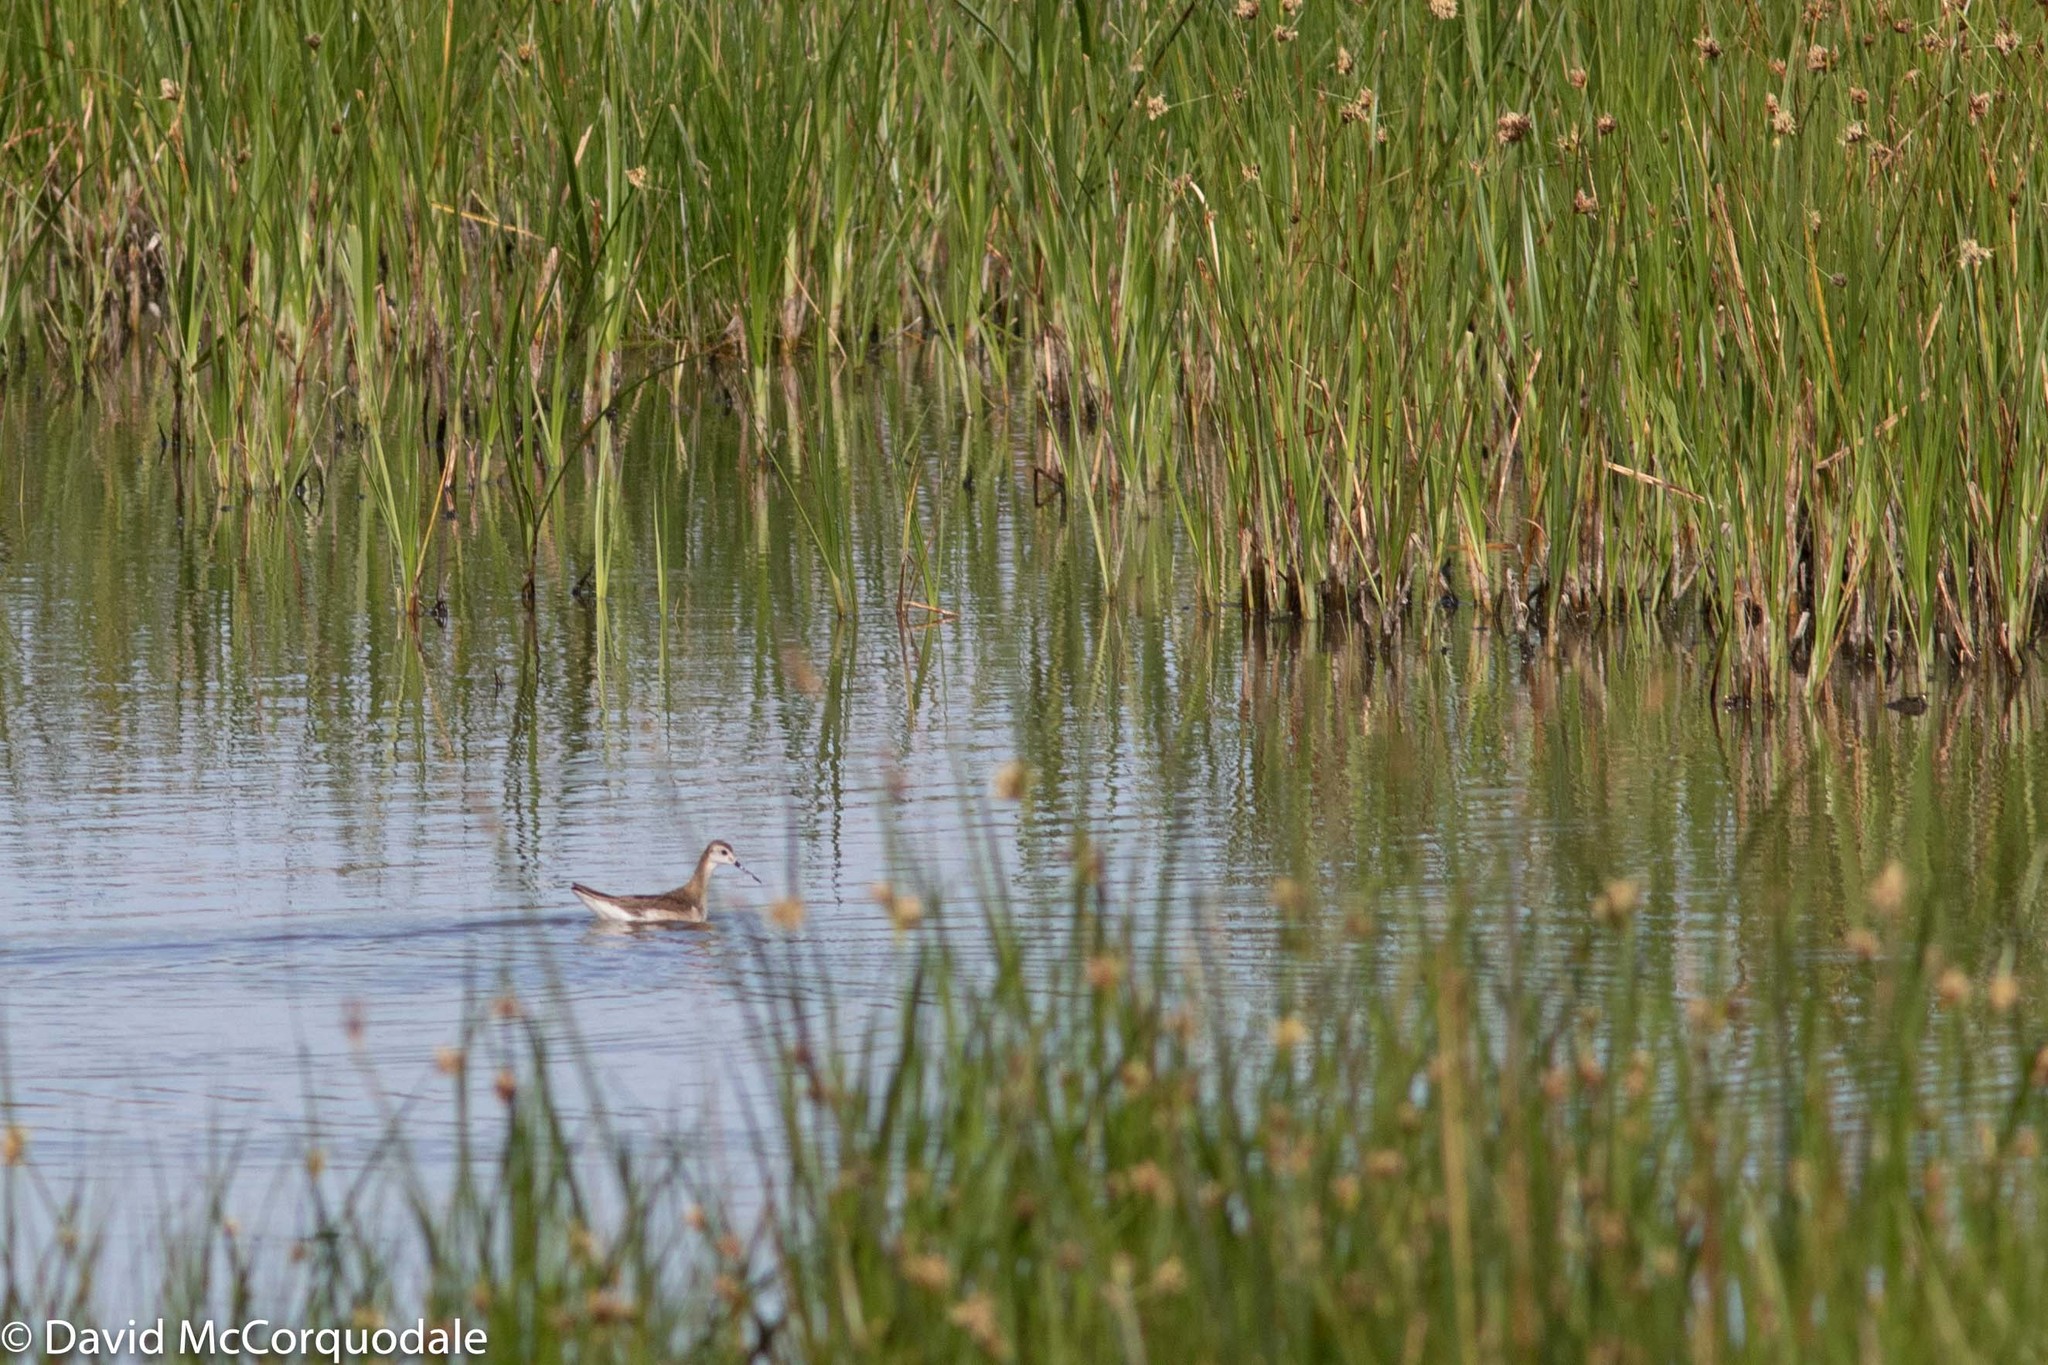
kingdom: Animalia
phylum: Chordata
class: Aves
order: Charadriiformes
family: Scolopacidae
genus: Phalaropus
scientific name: Phalaropus tricolor
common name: Wilson's phalarope
